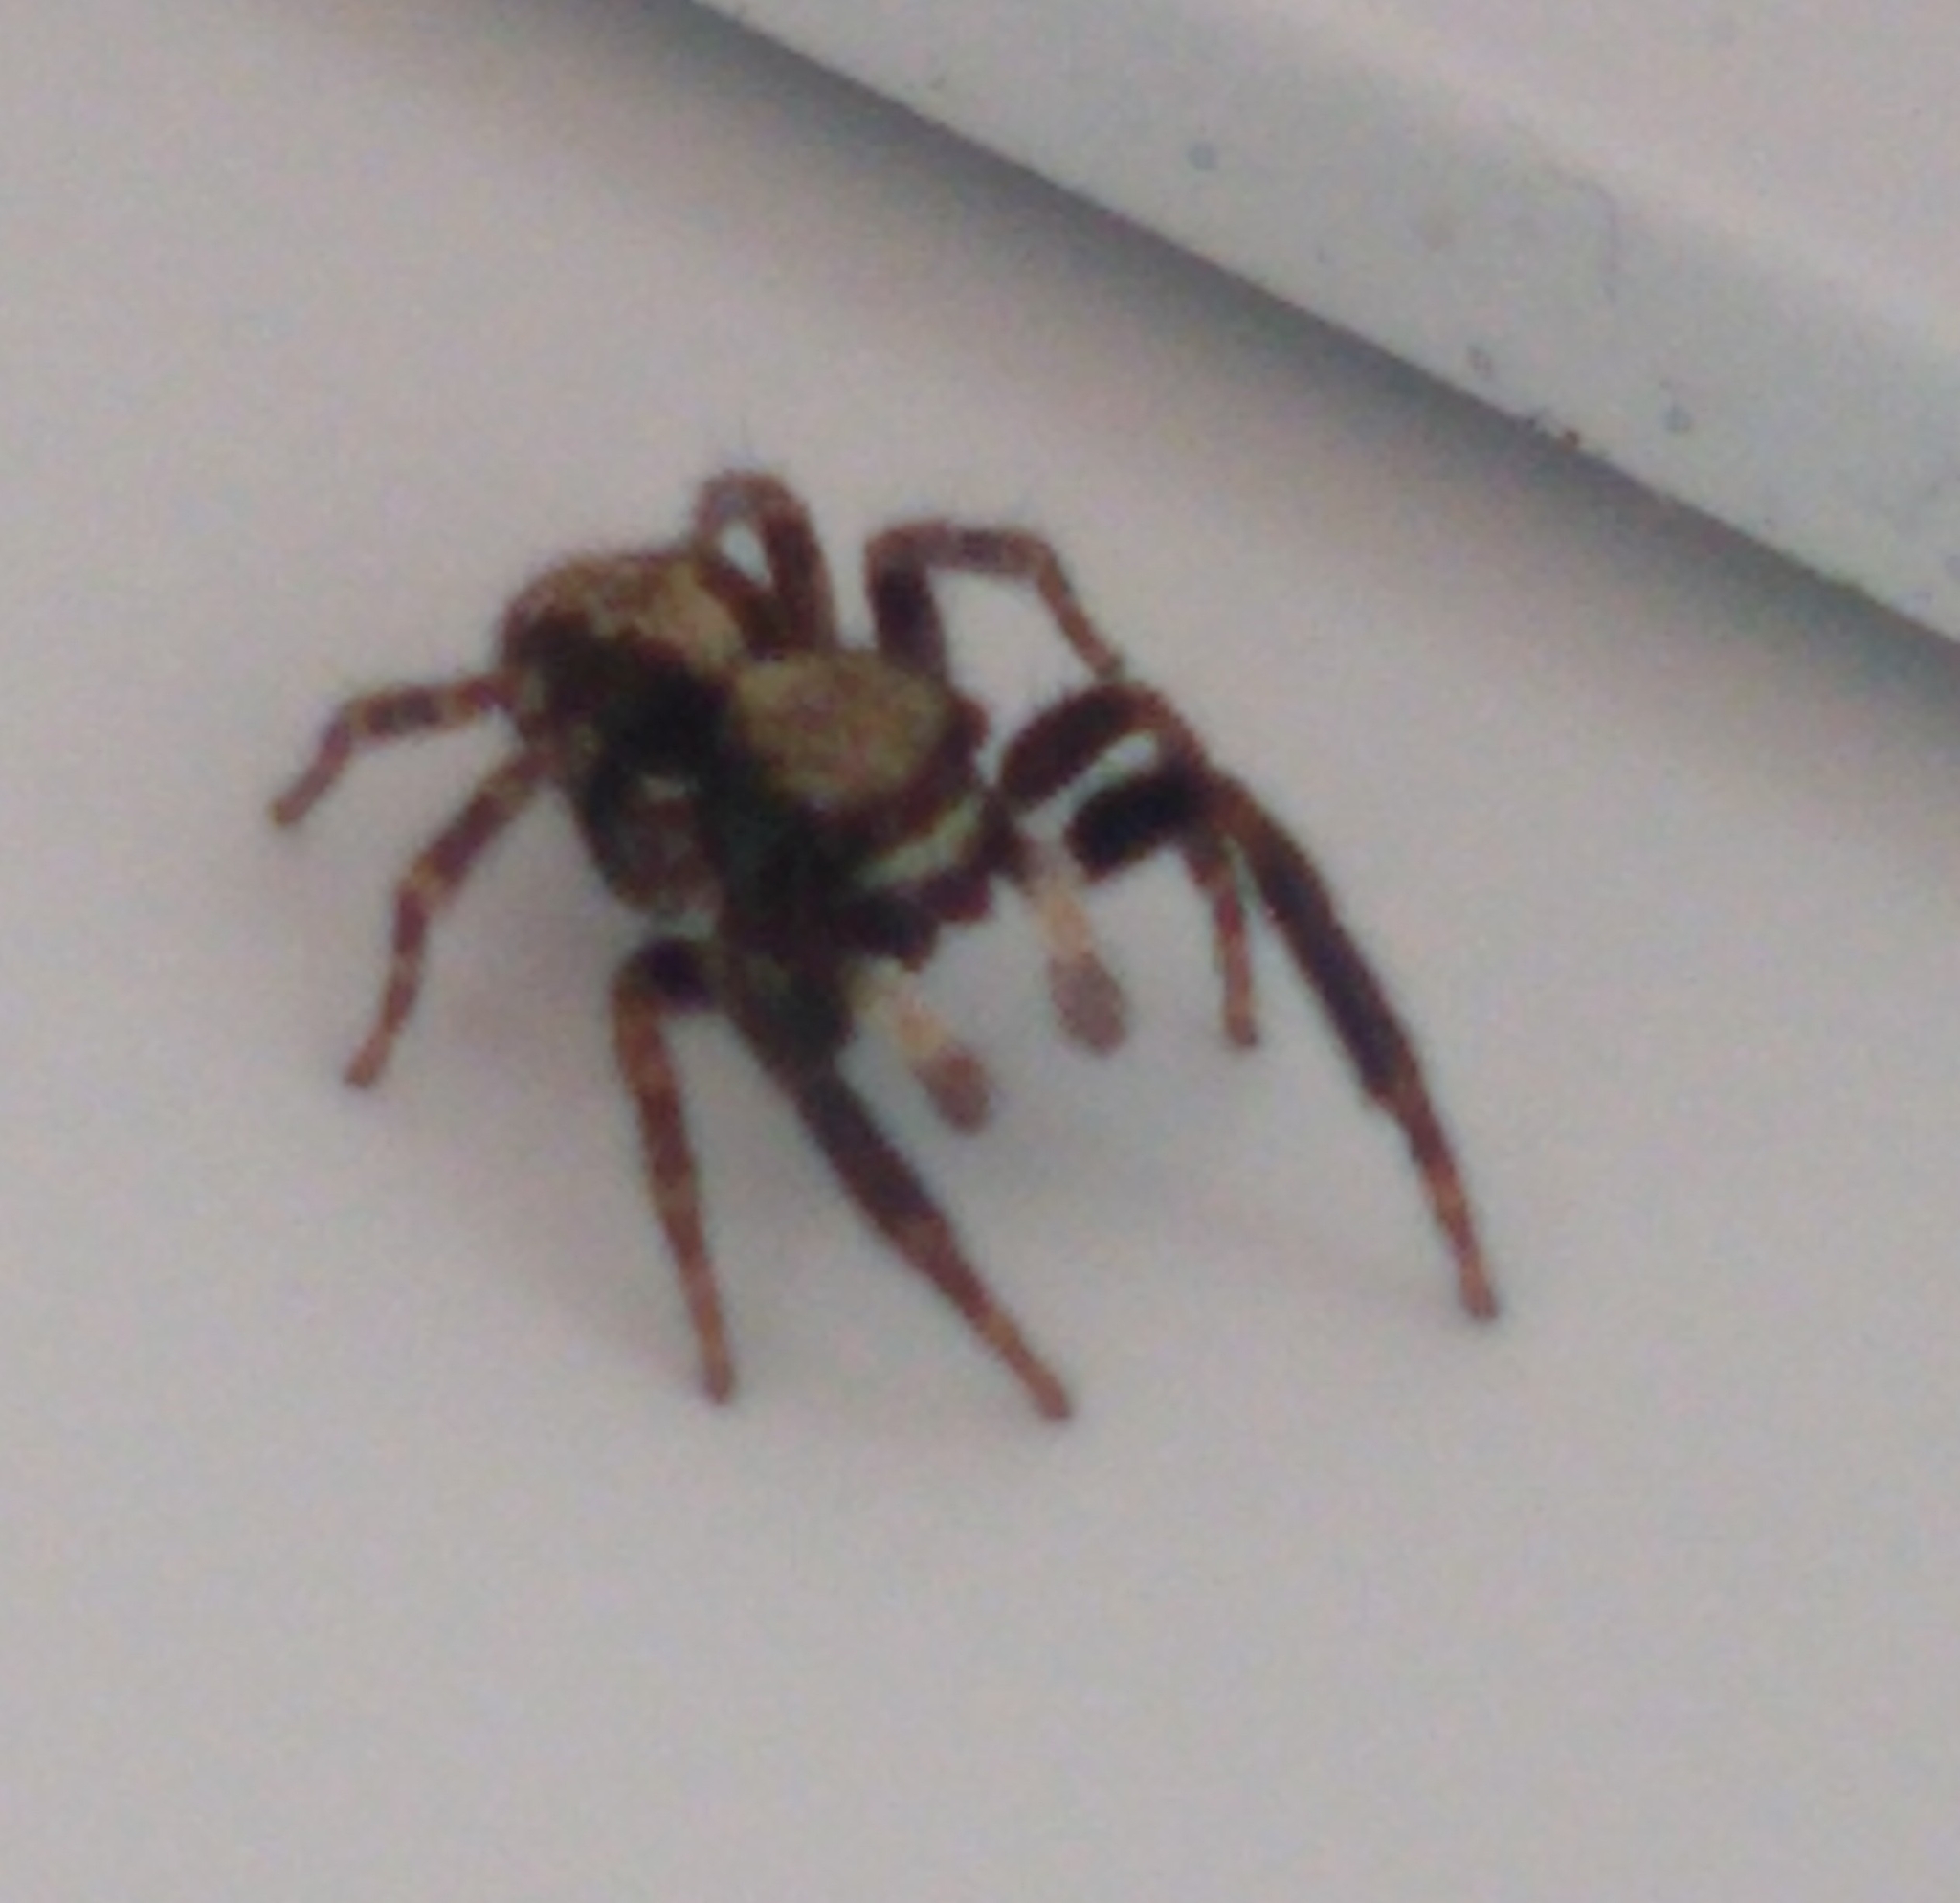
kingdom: Animalia
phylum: Arthropoda
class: Arachnida
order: Araneae
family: Salticidae
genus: Pseudeuophrys
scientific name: Pseudeuophrys lanigera
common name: Jumping spider
